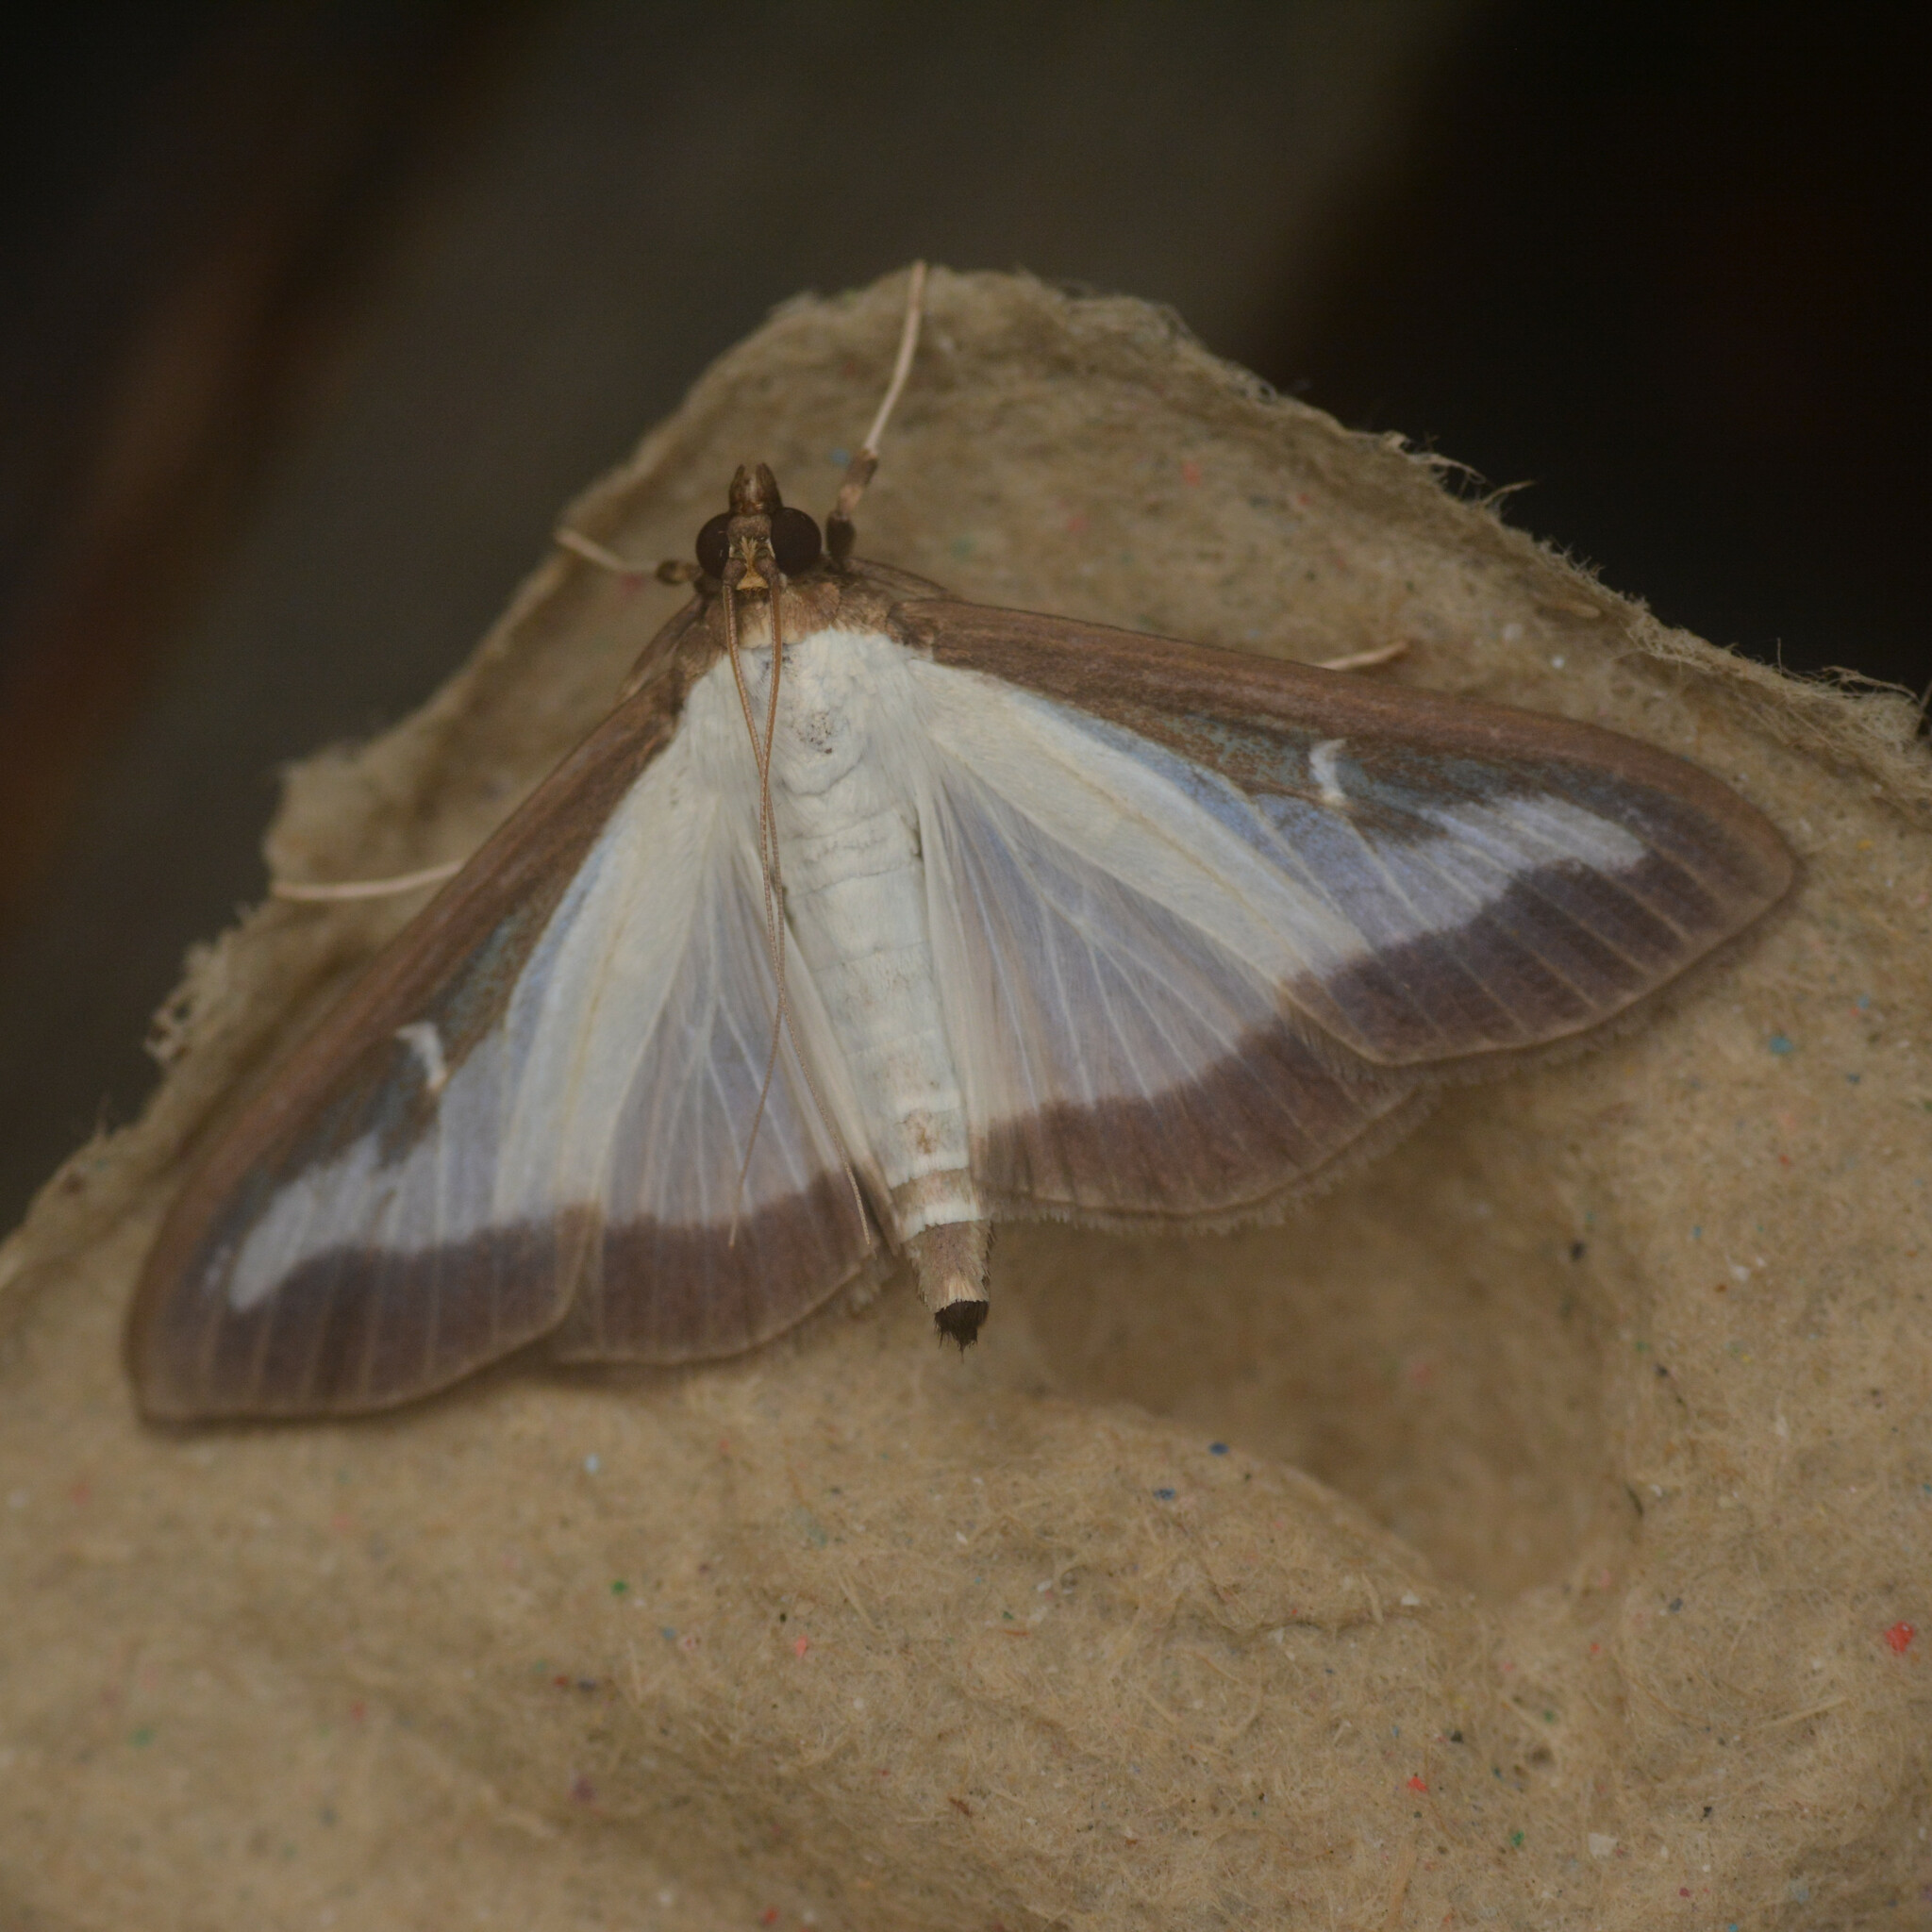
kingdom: Animalia
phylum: Arthropoda
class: Insecta
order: Lepidoptera
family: Crambidae
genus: Cydalima
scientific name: Cydalima perspectalis
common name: Box tree moth
